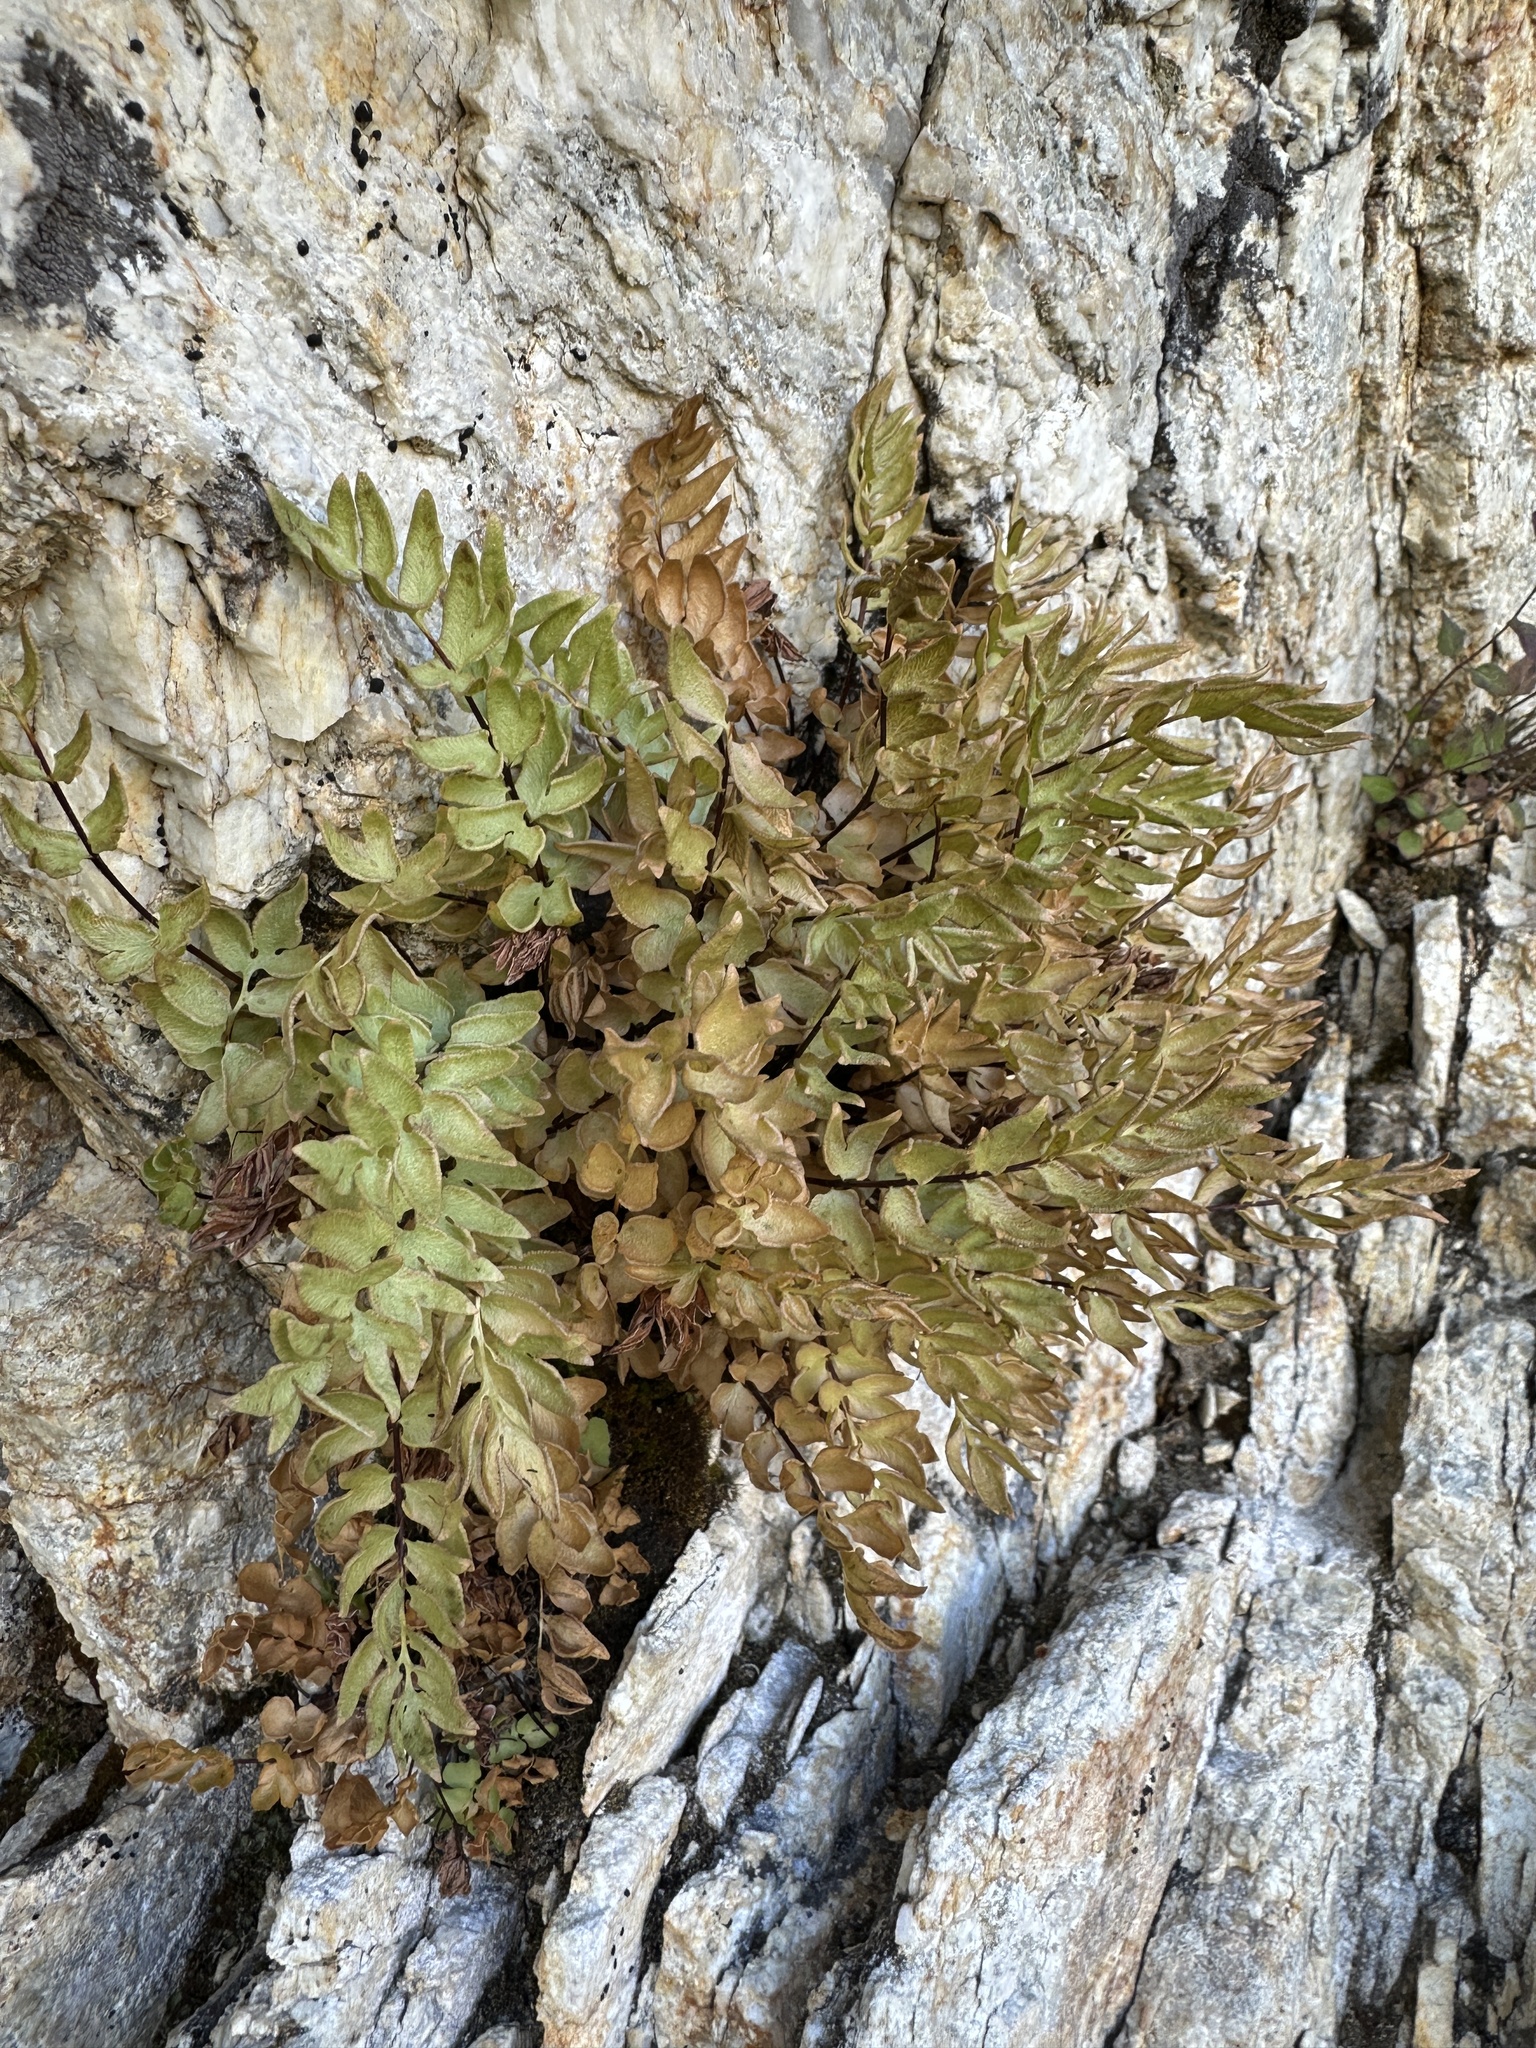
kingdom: Plantae
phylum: Tracheophyta
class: Polypodiopsida
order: Polypodiales
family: Pteridaceae
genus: Pellaea
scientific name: Pellaea breweri
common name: Brewer's cliffbrake
